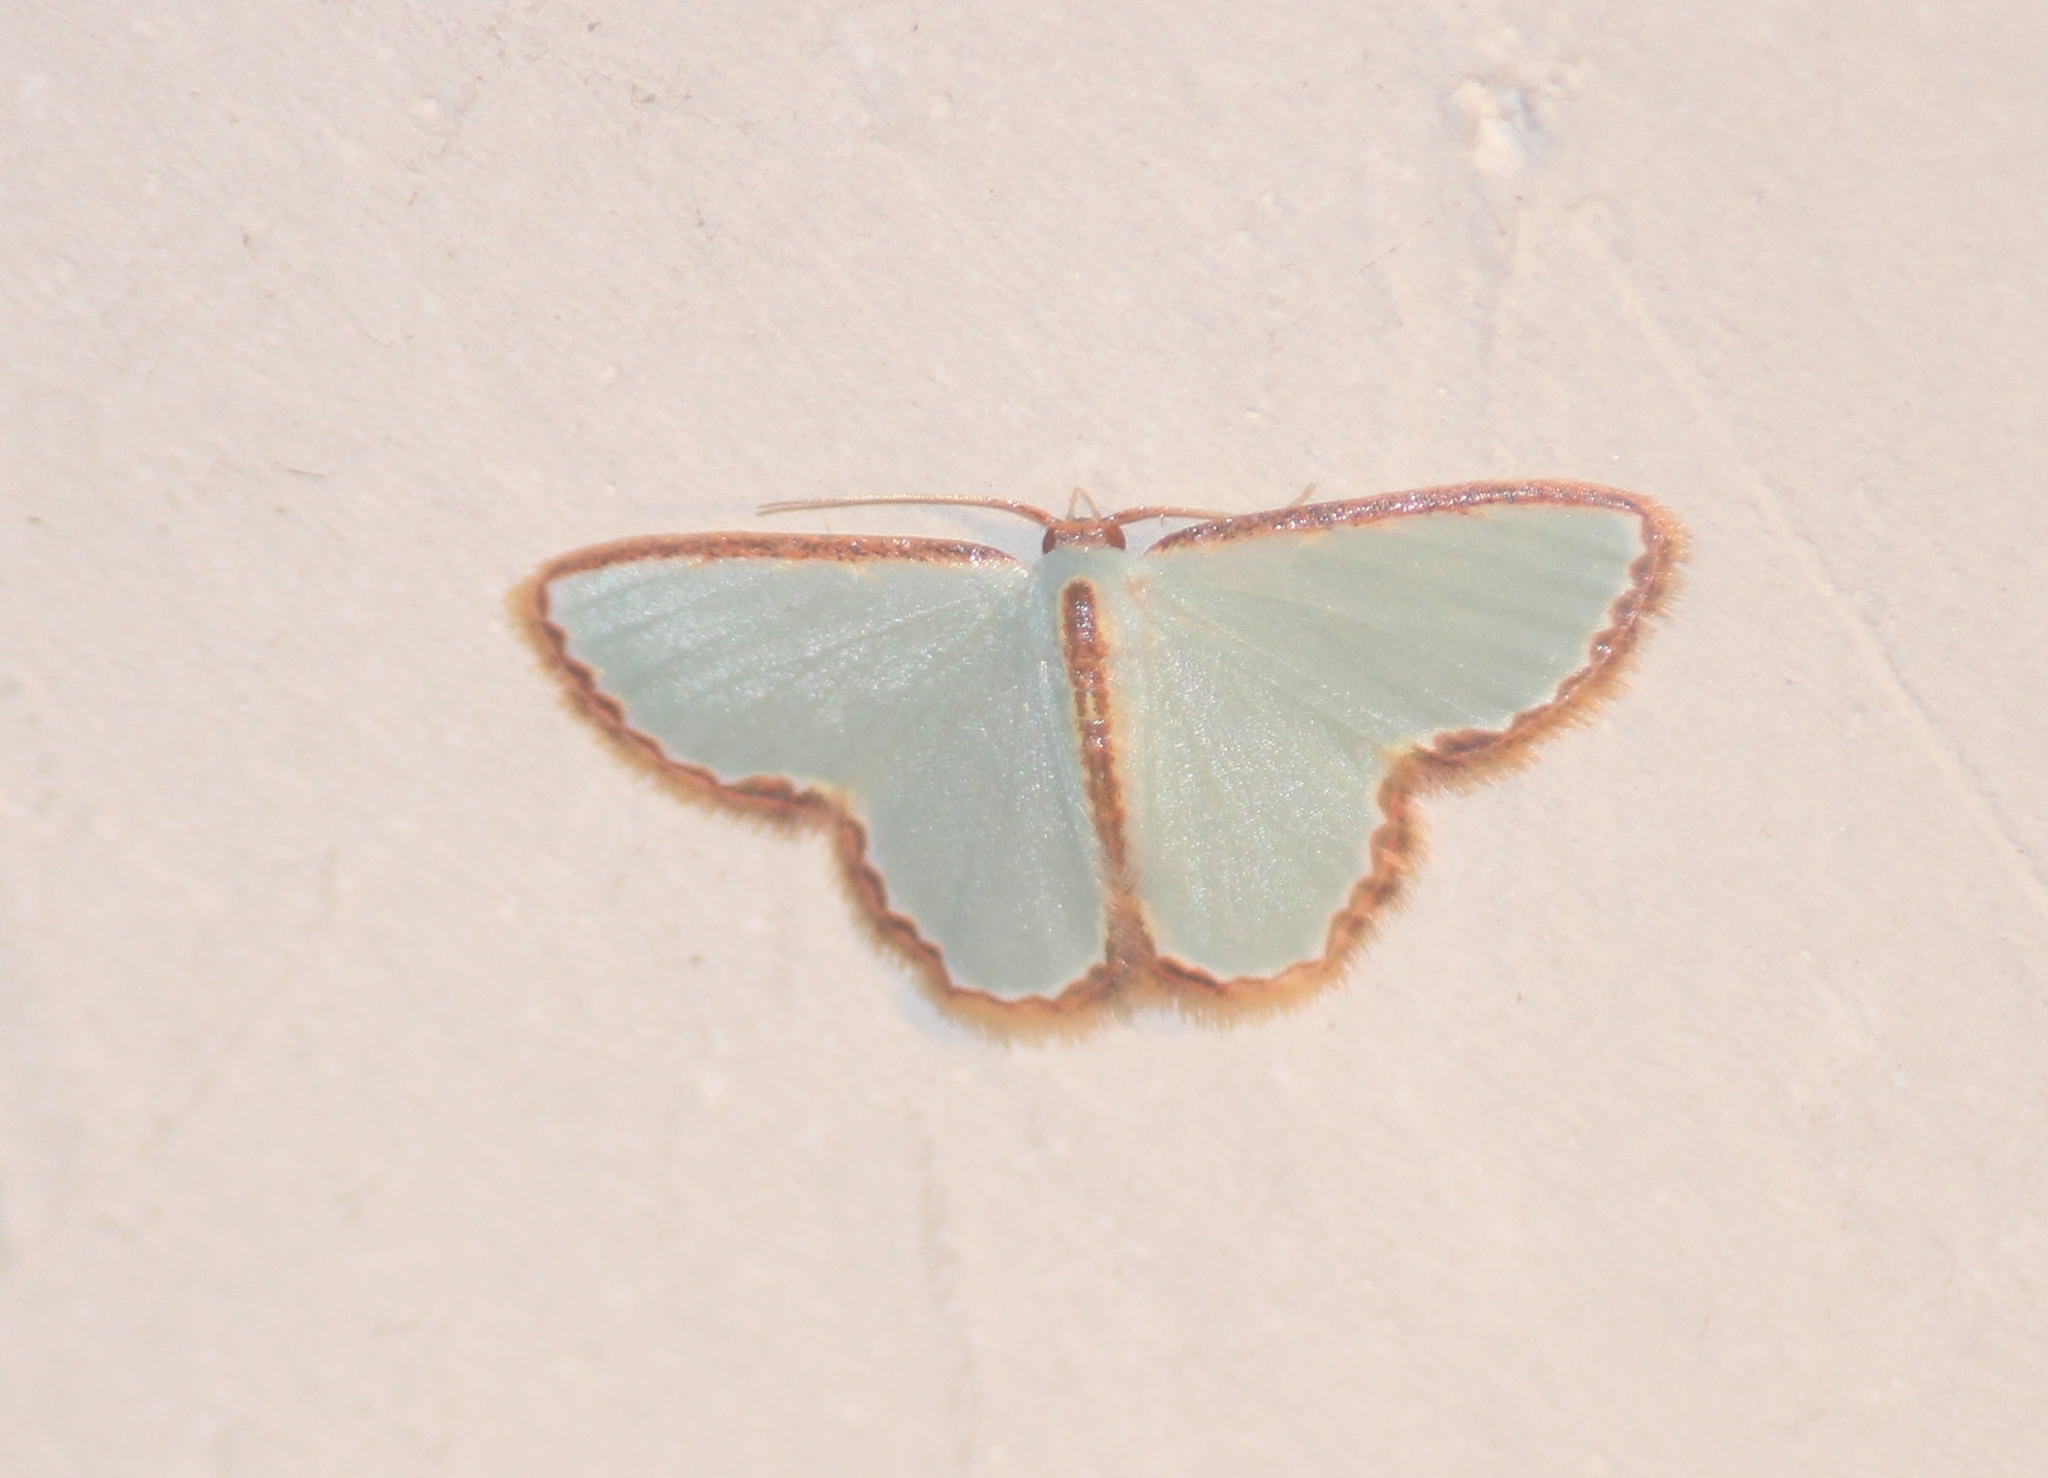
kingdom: Animalia
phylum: Arthropoda
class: Insecta
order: Lepidoptera
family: Geometridae
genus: Comostola
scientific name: Comostola pyrrhogona
